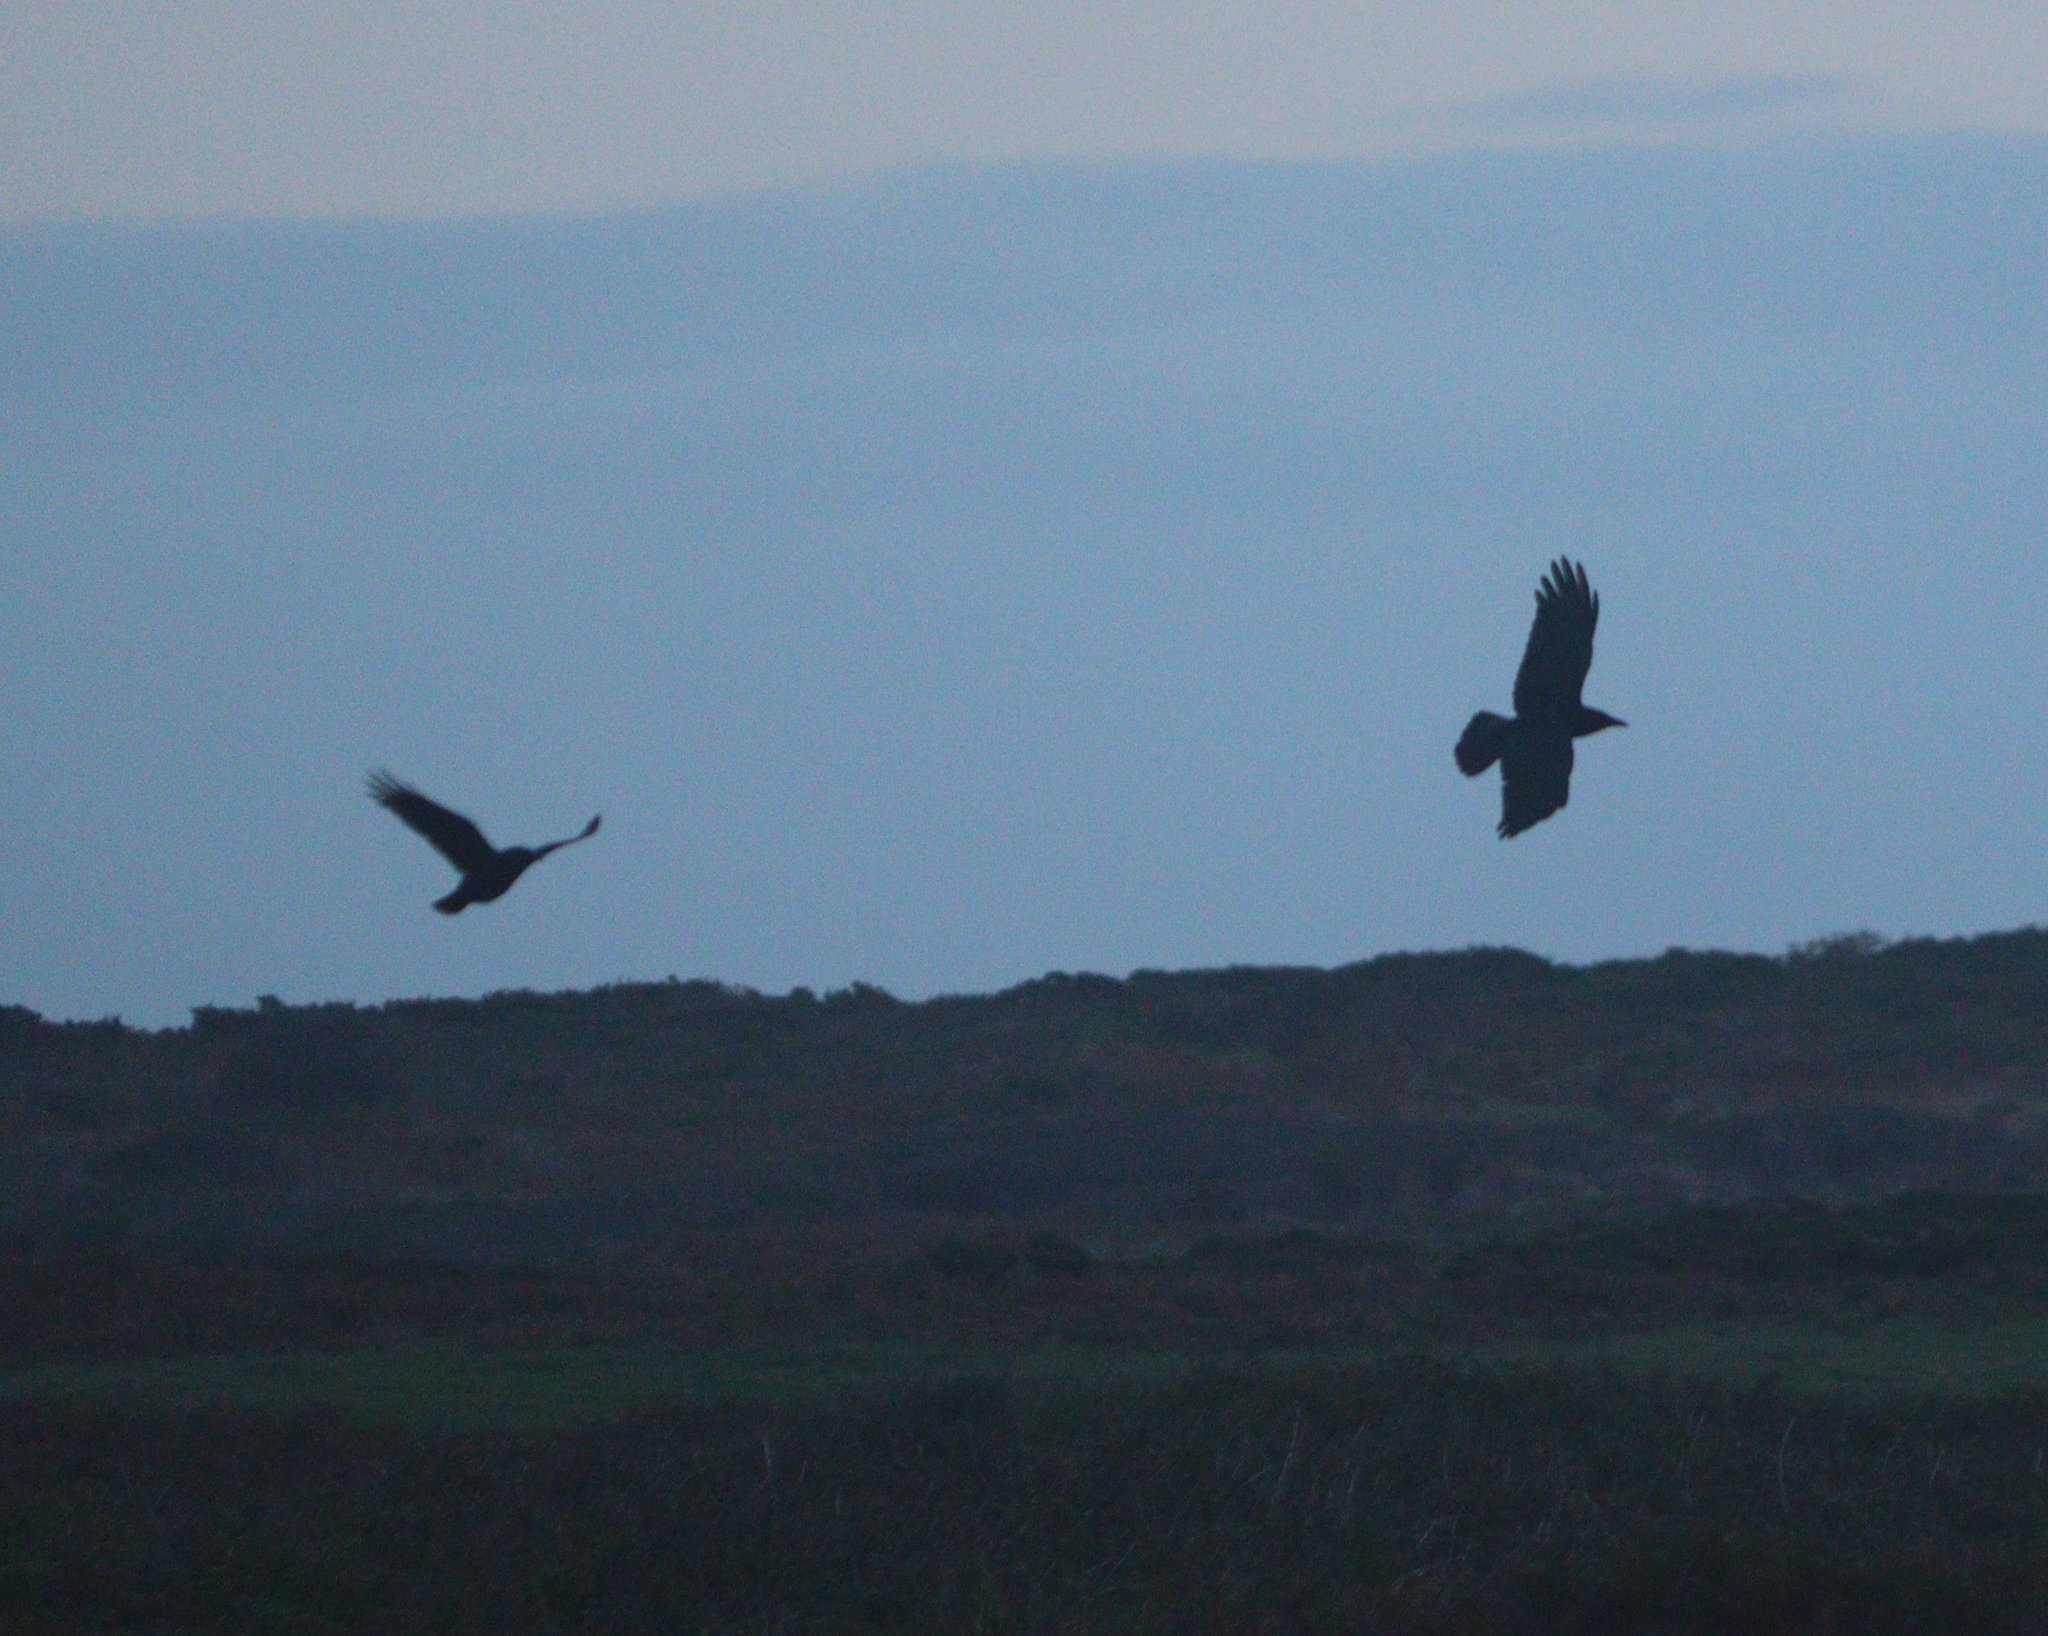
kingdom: Animalia
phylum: Chordata
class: Aves
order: Passeriformes
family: Corvidae
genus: Corvus
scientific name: Corvus corone
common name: Carrion crow
